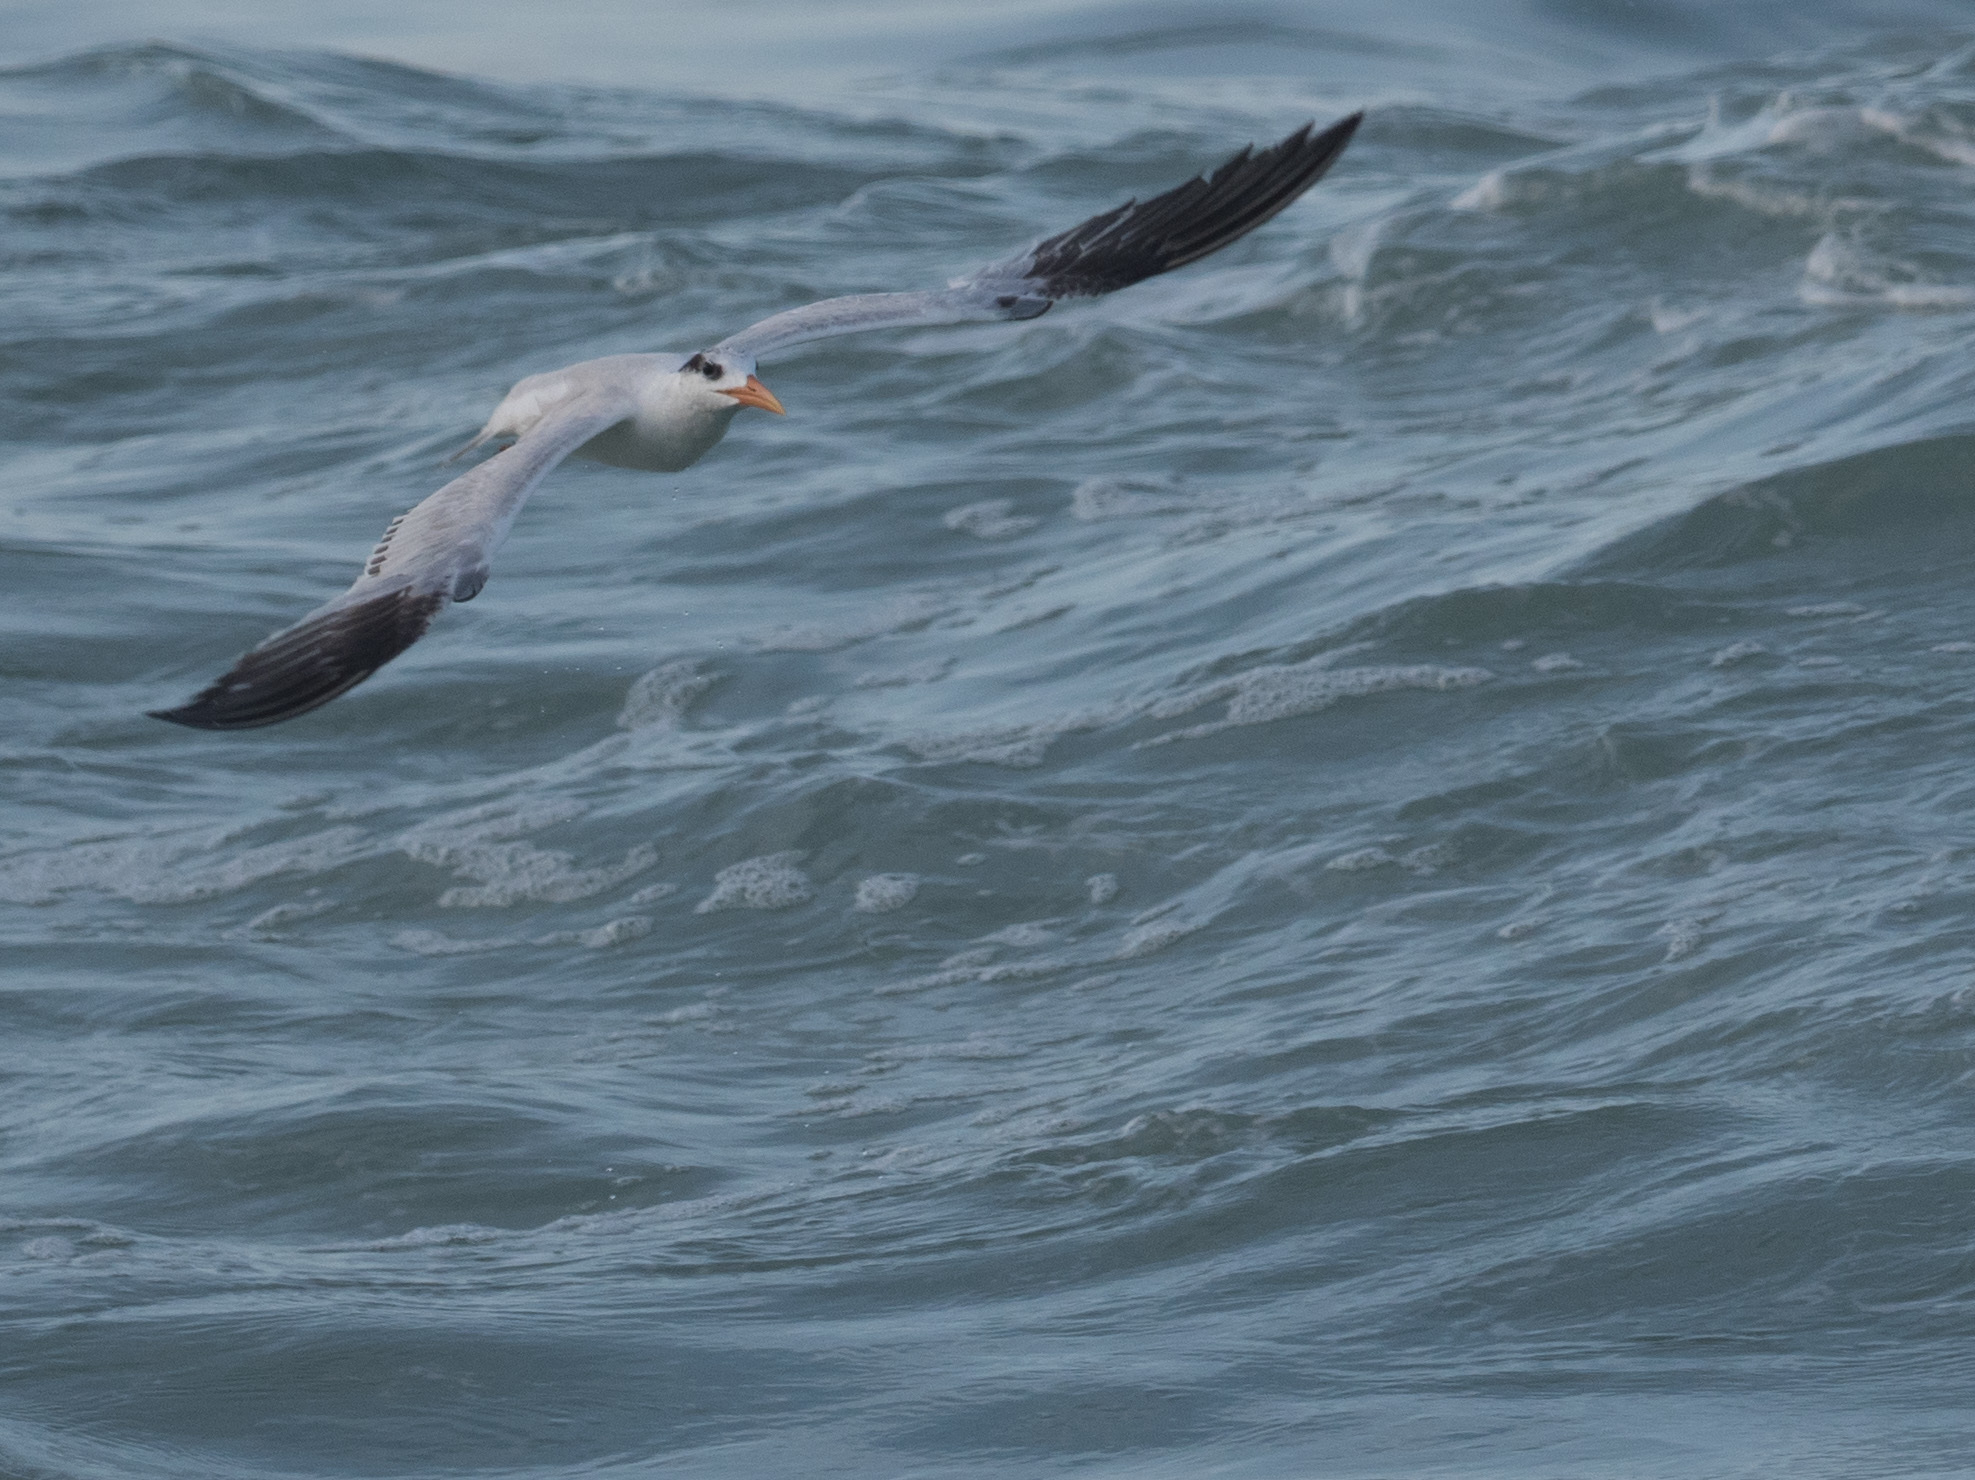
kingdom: Animalia
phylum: Chordata
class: Aves
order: Charadriiformes
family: Laridae
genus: Thalasseus
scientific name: Thalasseus maximus
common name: Royal tern
